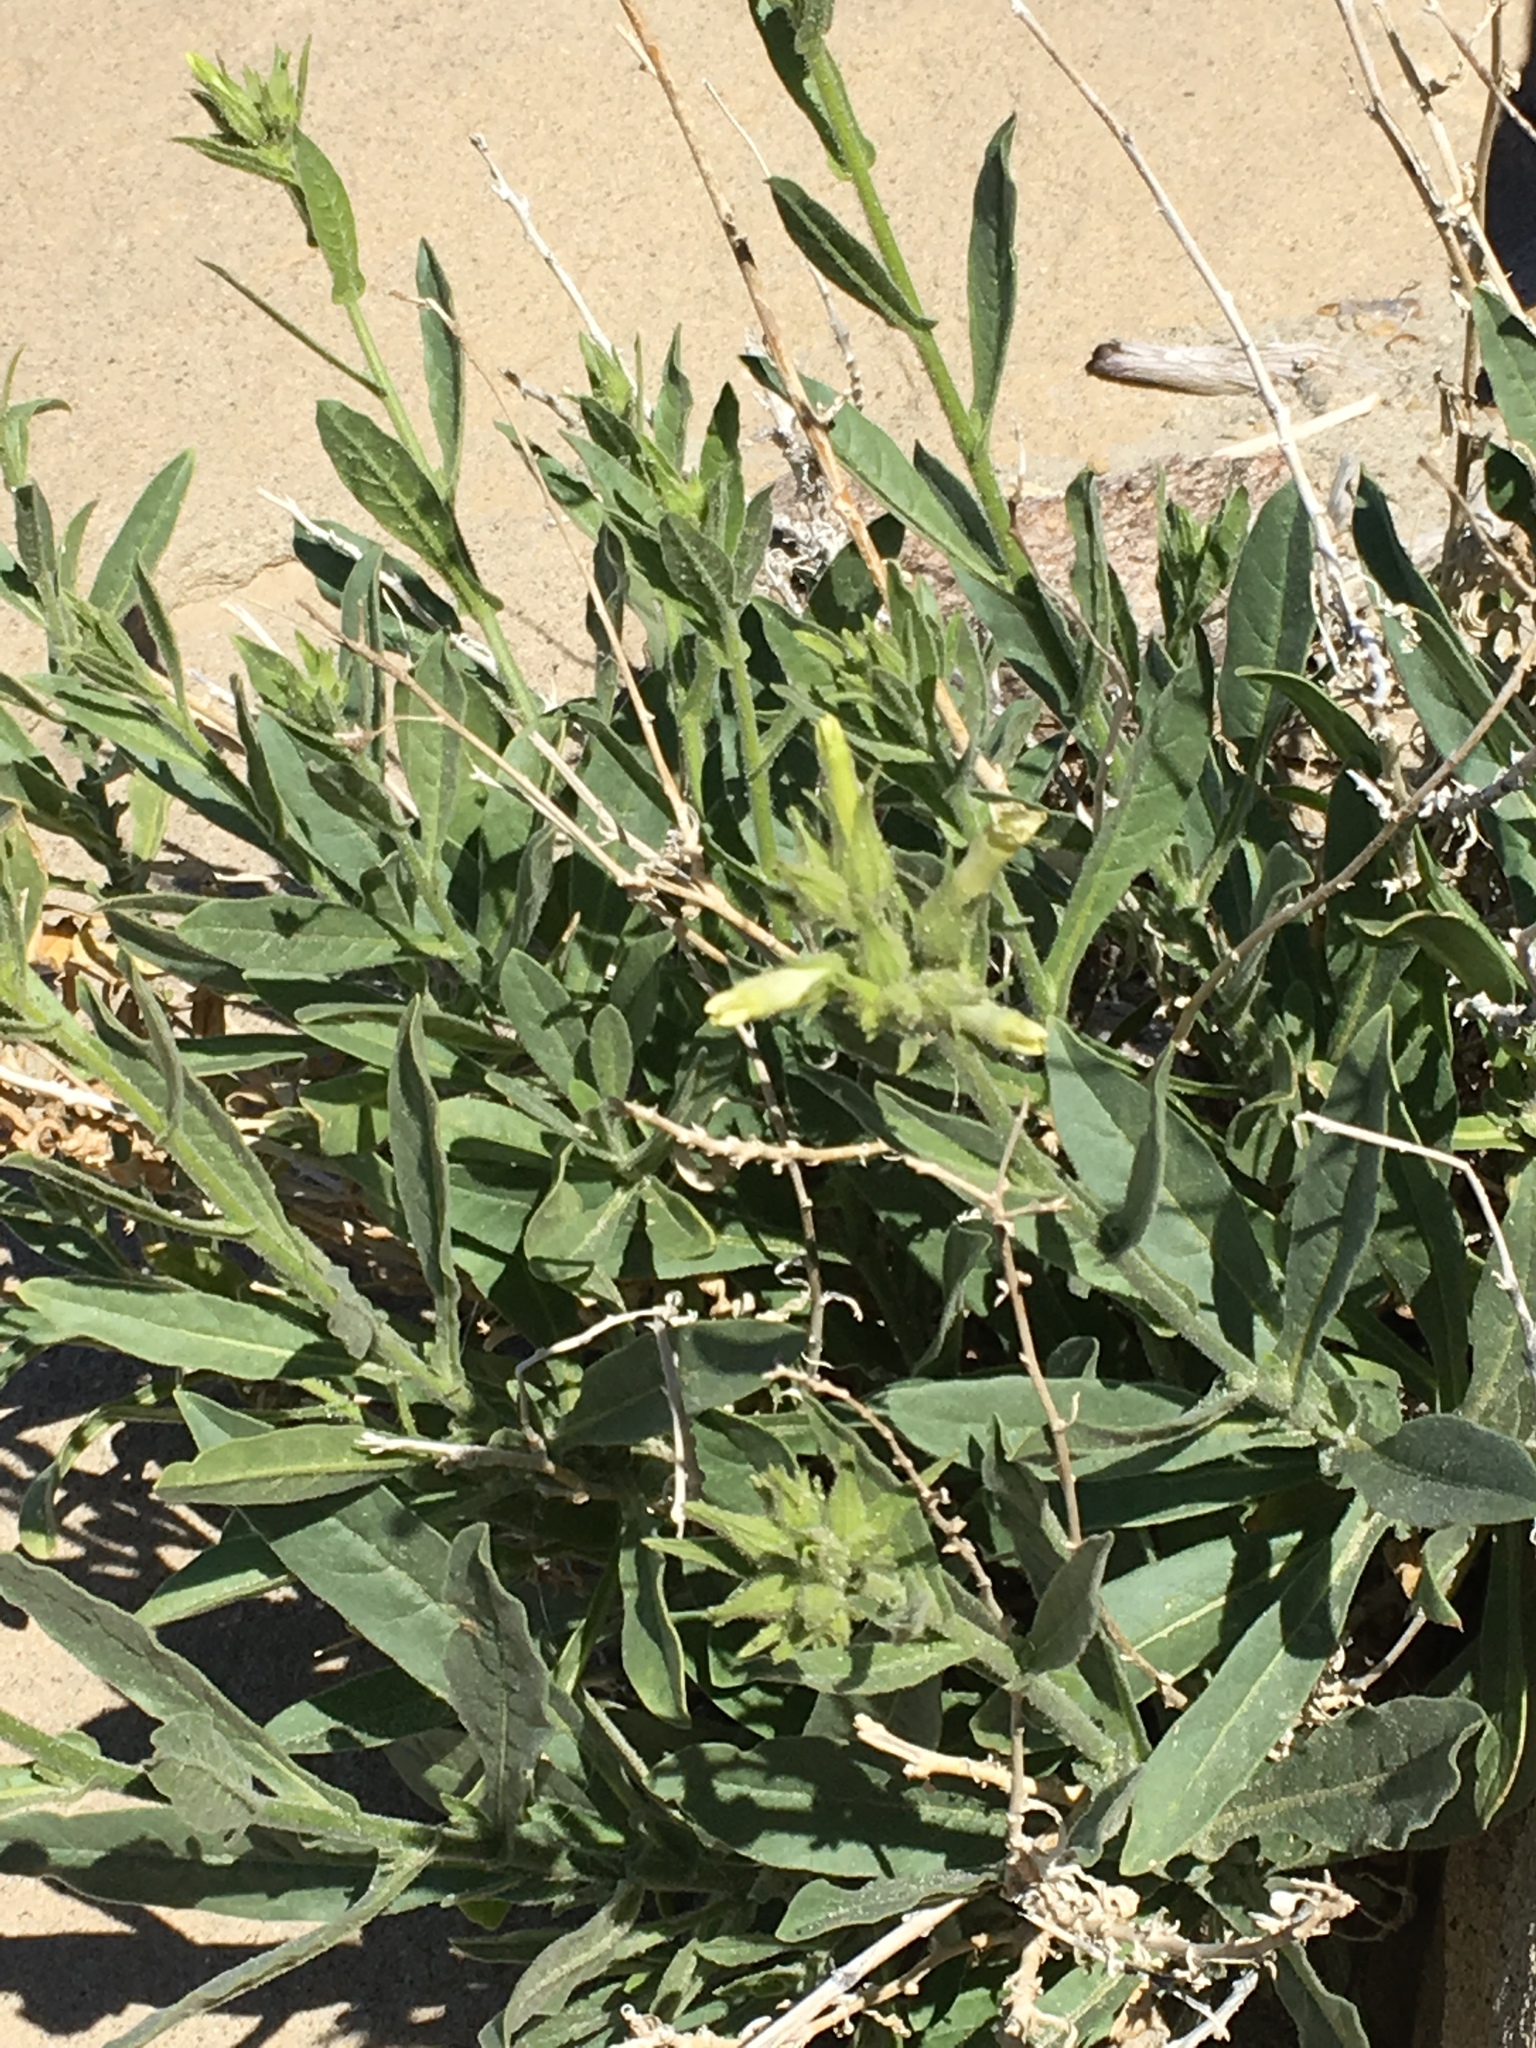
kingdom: Plantae
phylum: Tracheophyta
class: Magnoliopsida
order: Solanales
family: Solanaceae
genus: Nicotiana
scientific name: Nicotiana obtusifolia
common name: Desert tobacco
